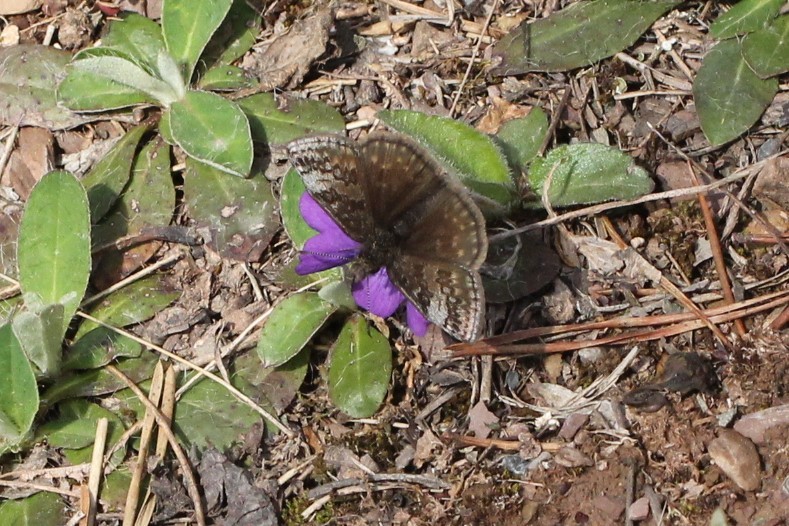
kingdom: Animalia
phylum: Arthropoda
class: Insecta
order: Lepidoptera
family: Hesperiidae
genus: Erynnis
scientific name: Erynnis icelus
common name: Dreamy duskywing
